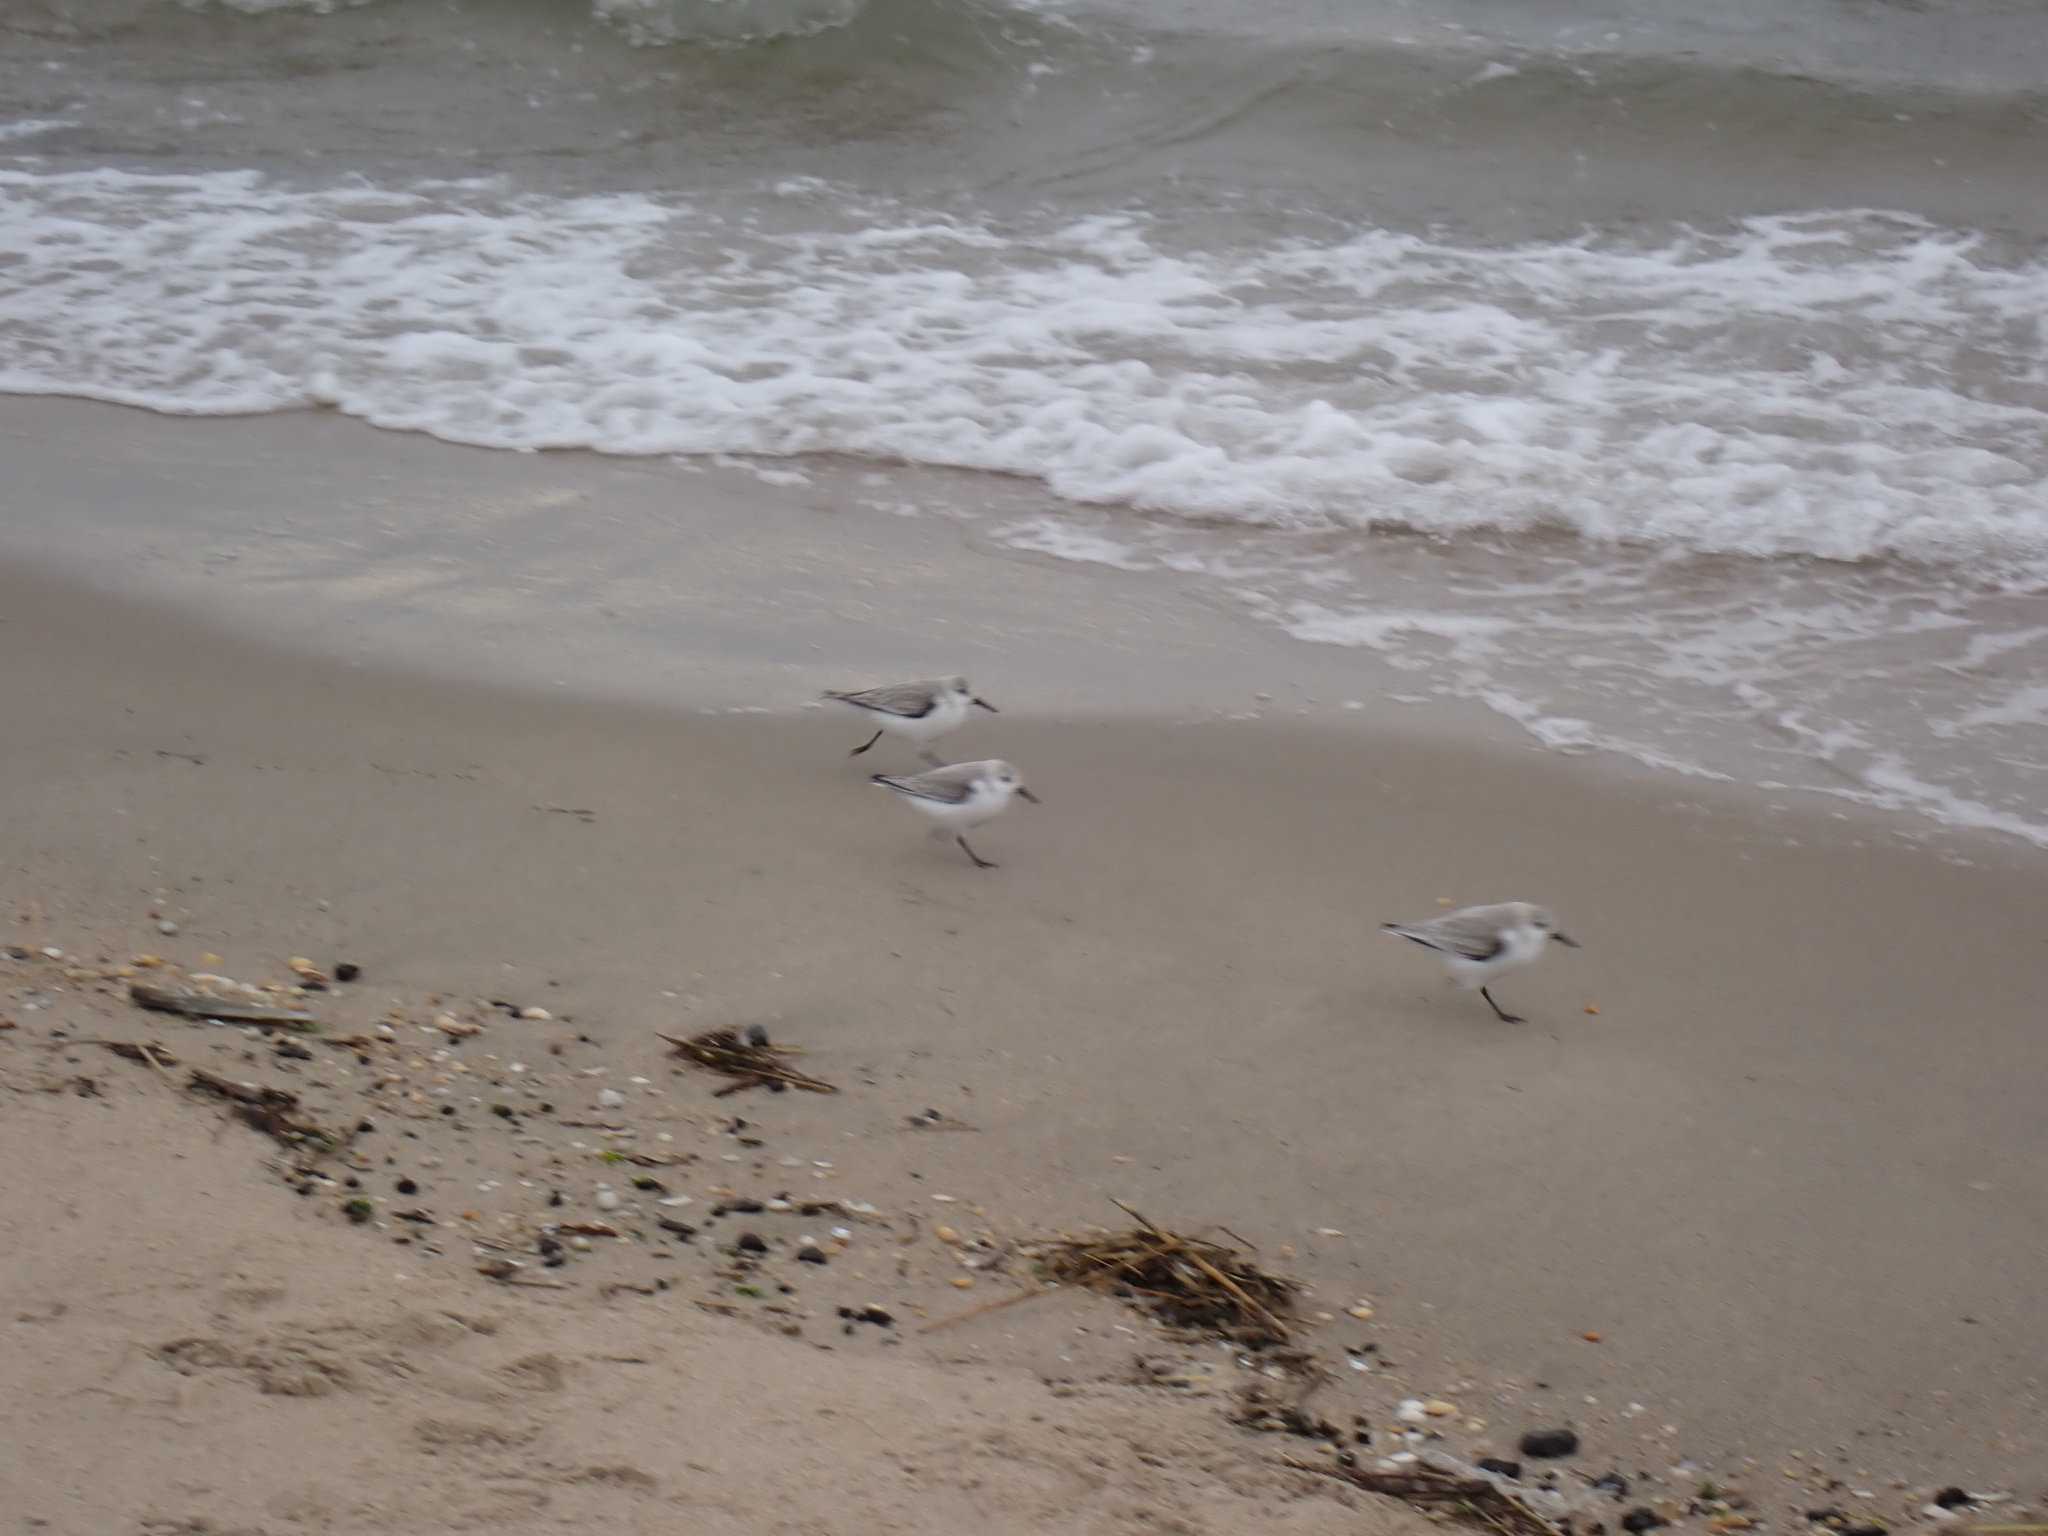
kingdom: Animalia
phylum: Chordata
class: Aves
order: Charadriiformes
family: Scolopacidae
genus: Calidris
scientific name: Calidris alba
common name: Sanderling
